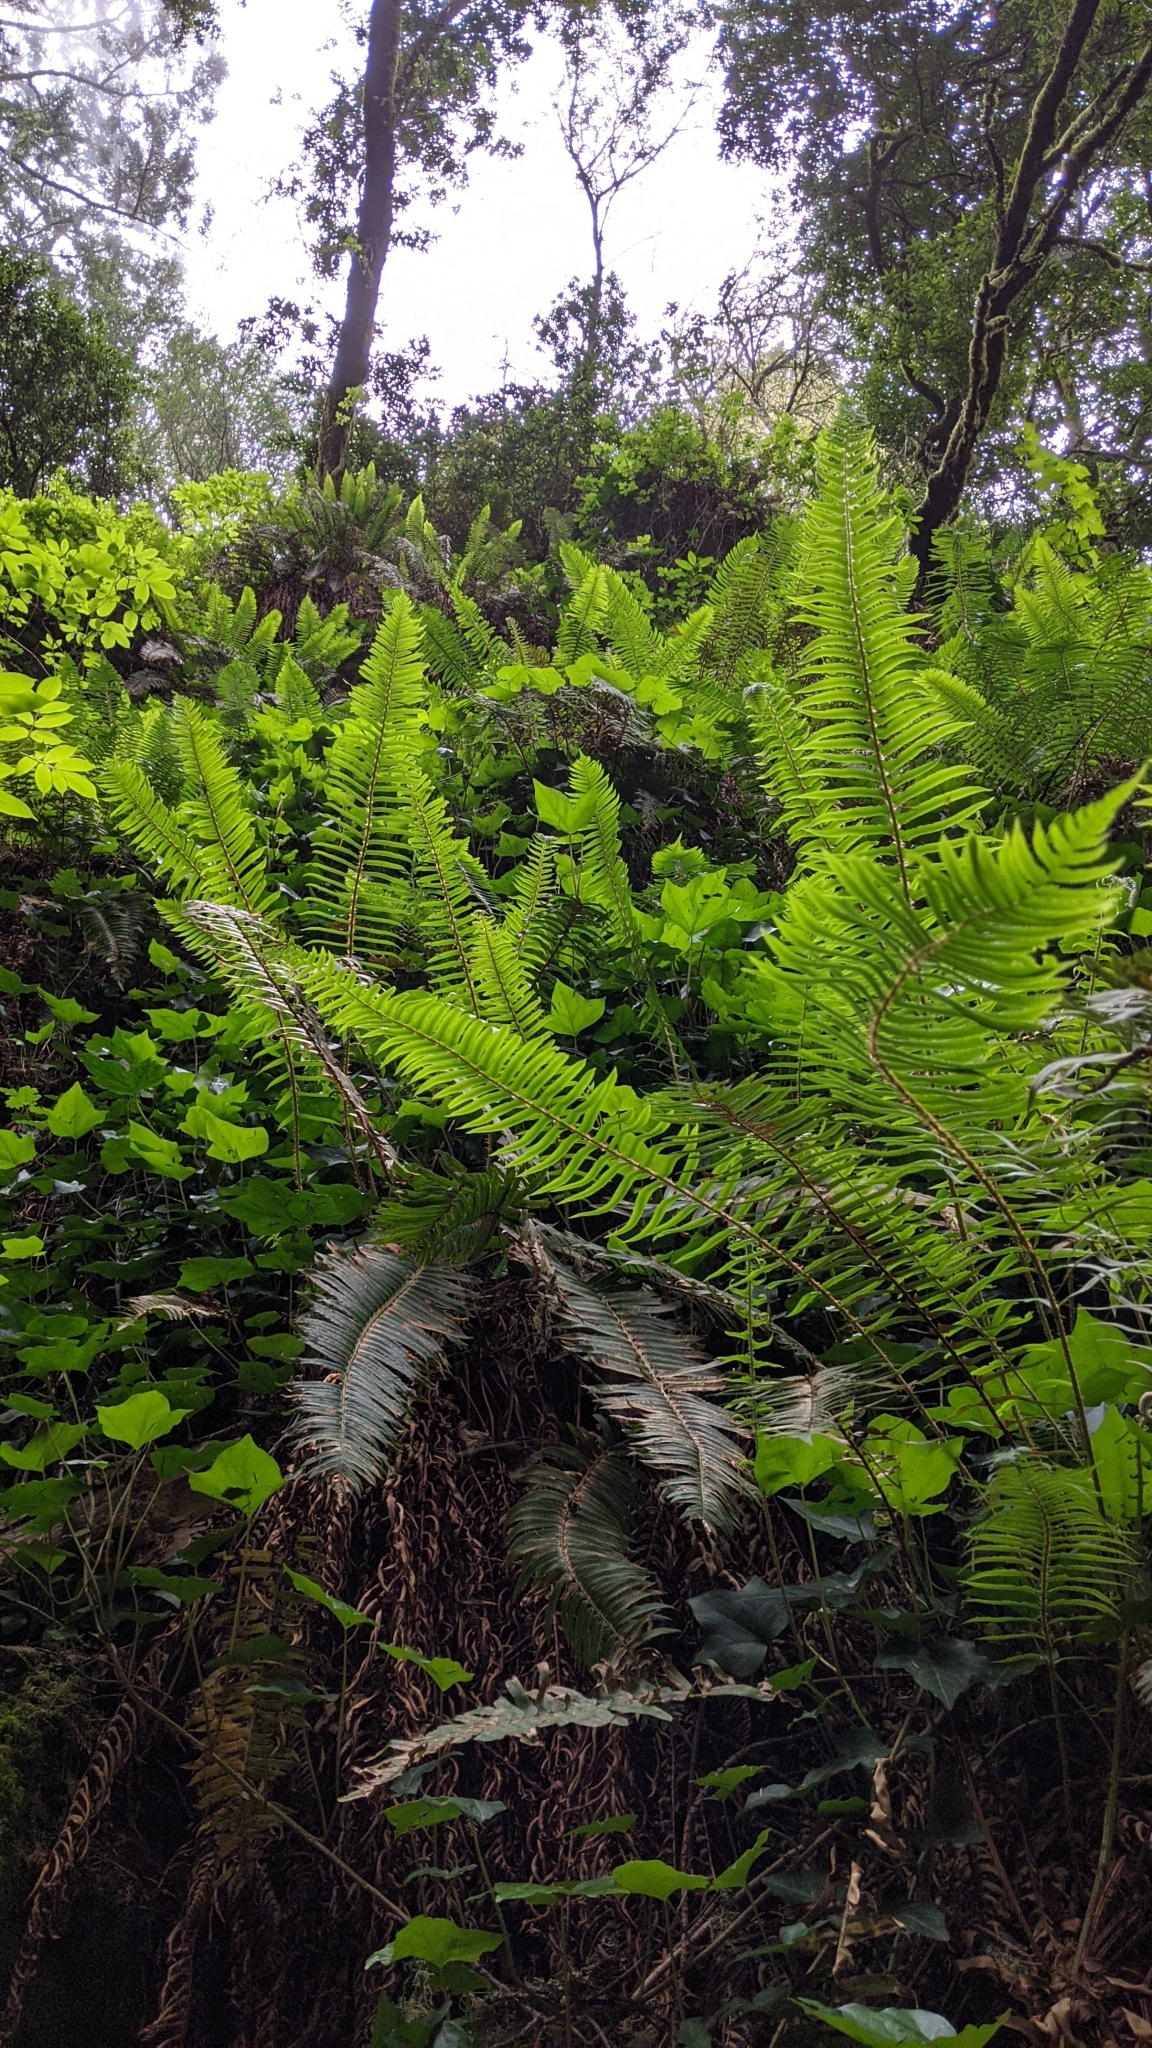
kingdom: Plantae
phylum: Tracheophyta
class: Polypodiopsida
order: Polypodiales
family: Dryopteridaceae
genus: Polystichum
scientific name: Polystichum munitum
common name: Western sword-fern
